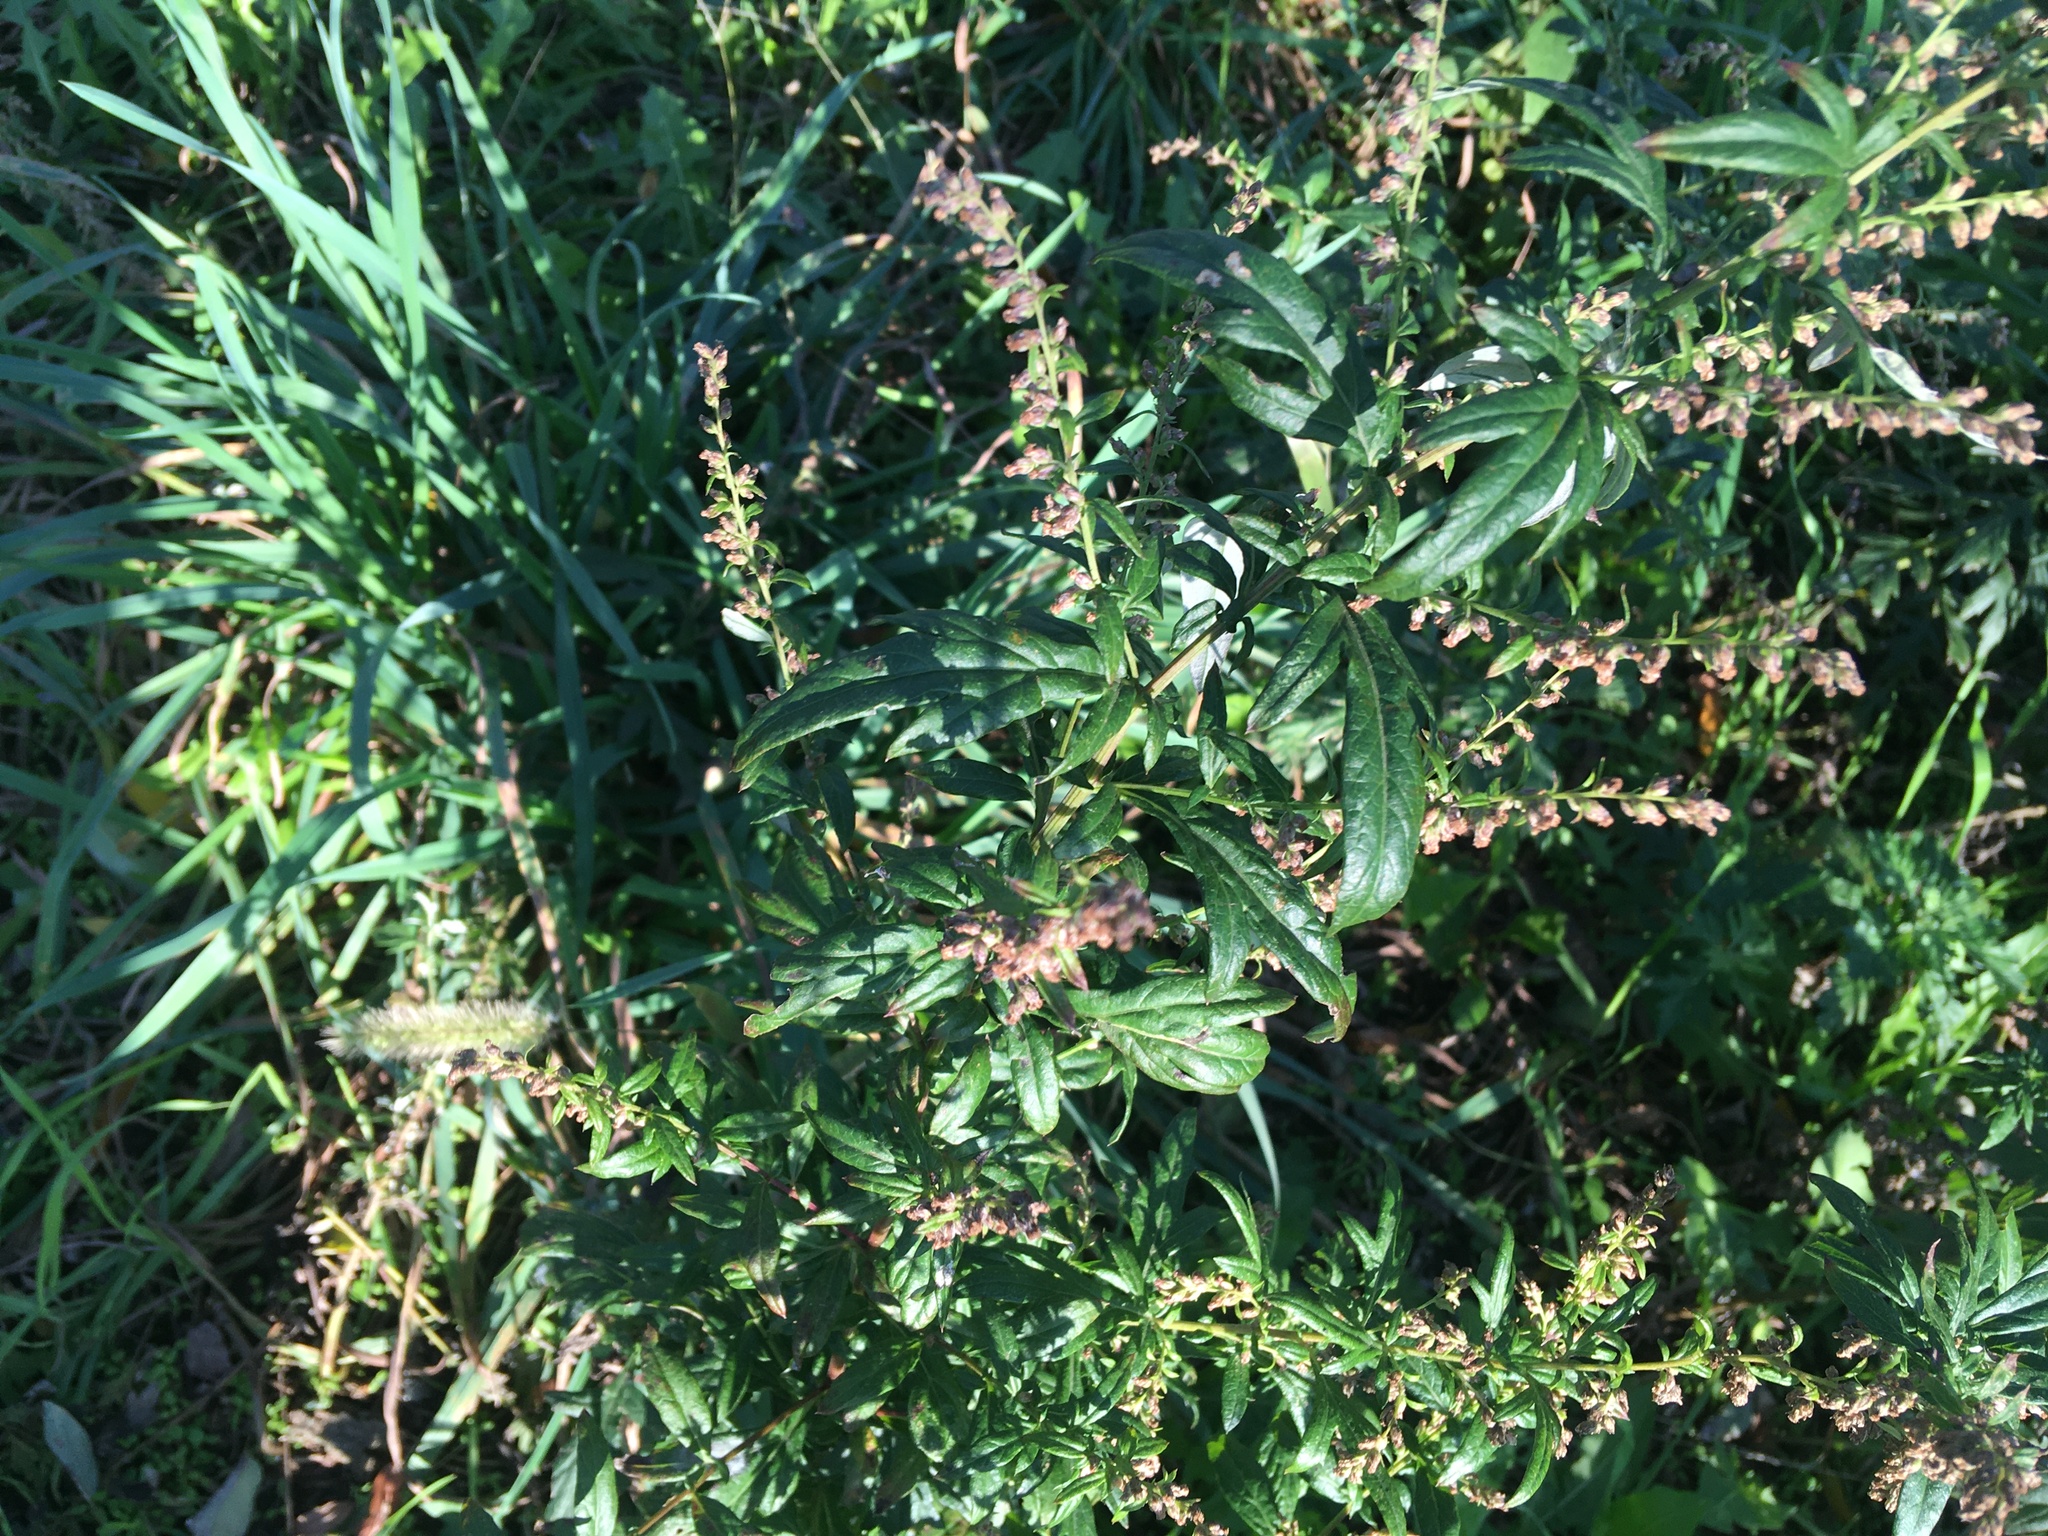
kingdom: Plantae
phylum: Tracheophyta
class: Magnoliopsida
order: Asterales
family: Asteraceae
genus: Artemisia
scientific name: Artemisia vulgaris
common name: Mugwort
